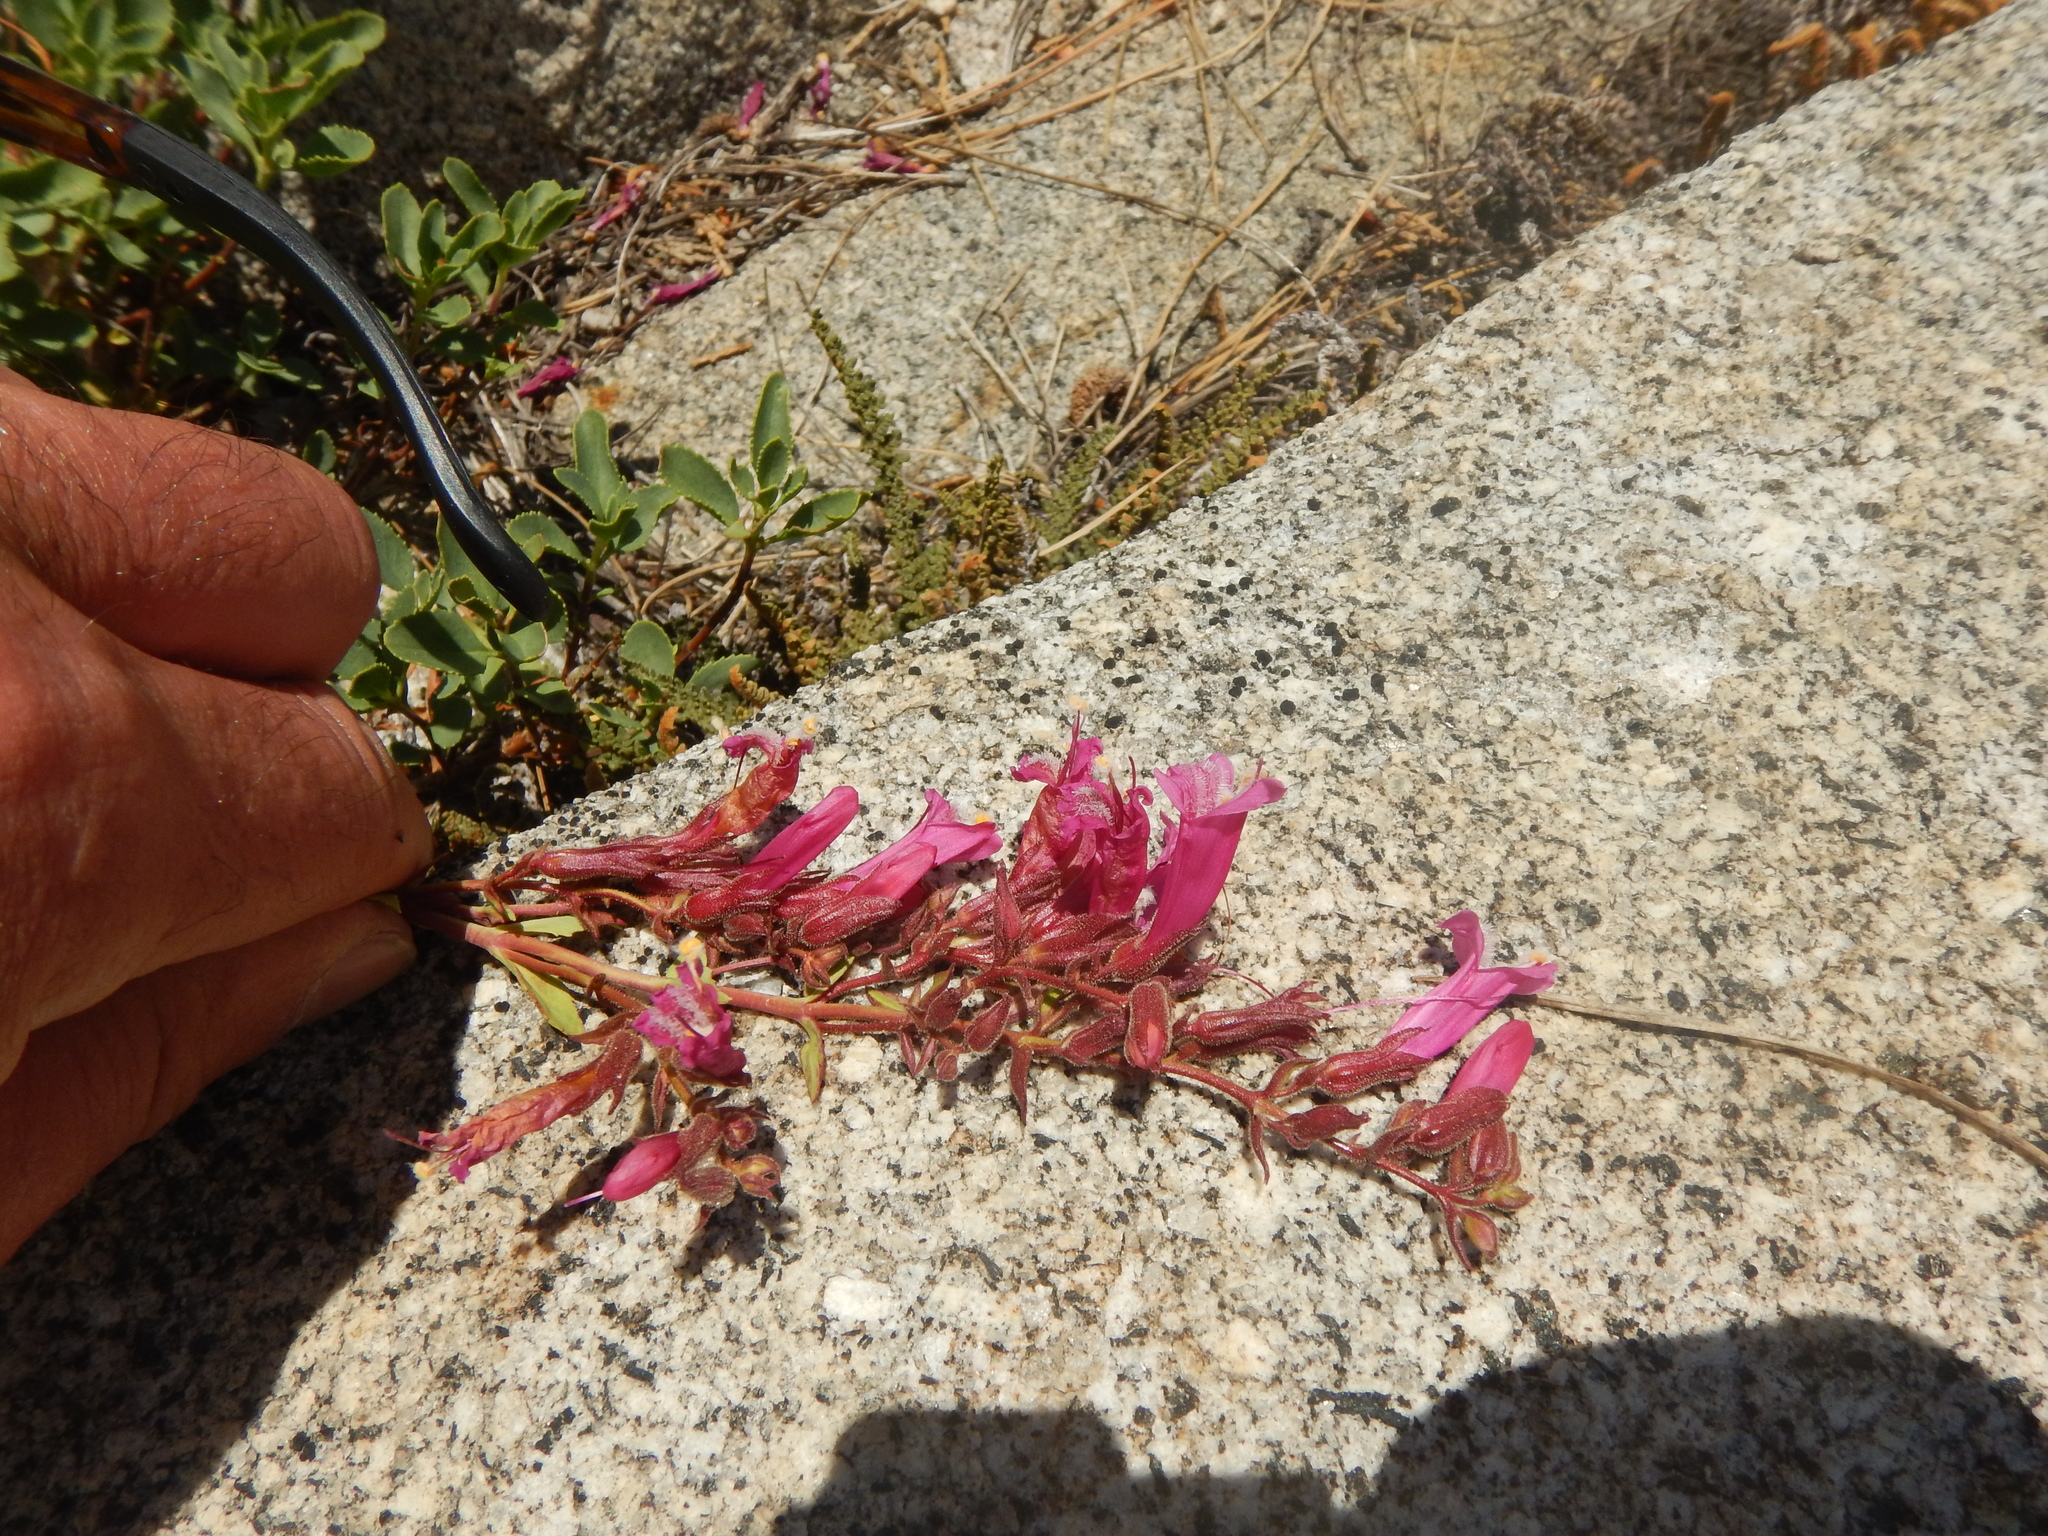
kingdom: Plantae
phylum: Tracheophyta
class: Magnoliopsida
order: Lamiales
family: Plantaginaceae
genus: Penstemon
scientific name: Penstemon newberryi
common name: Mountain-pride
